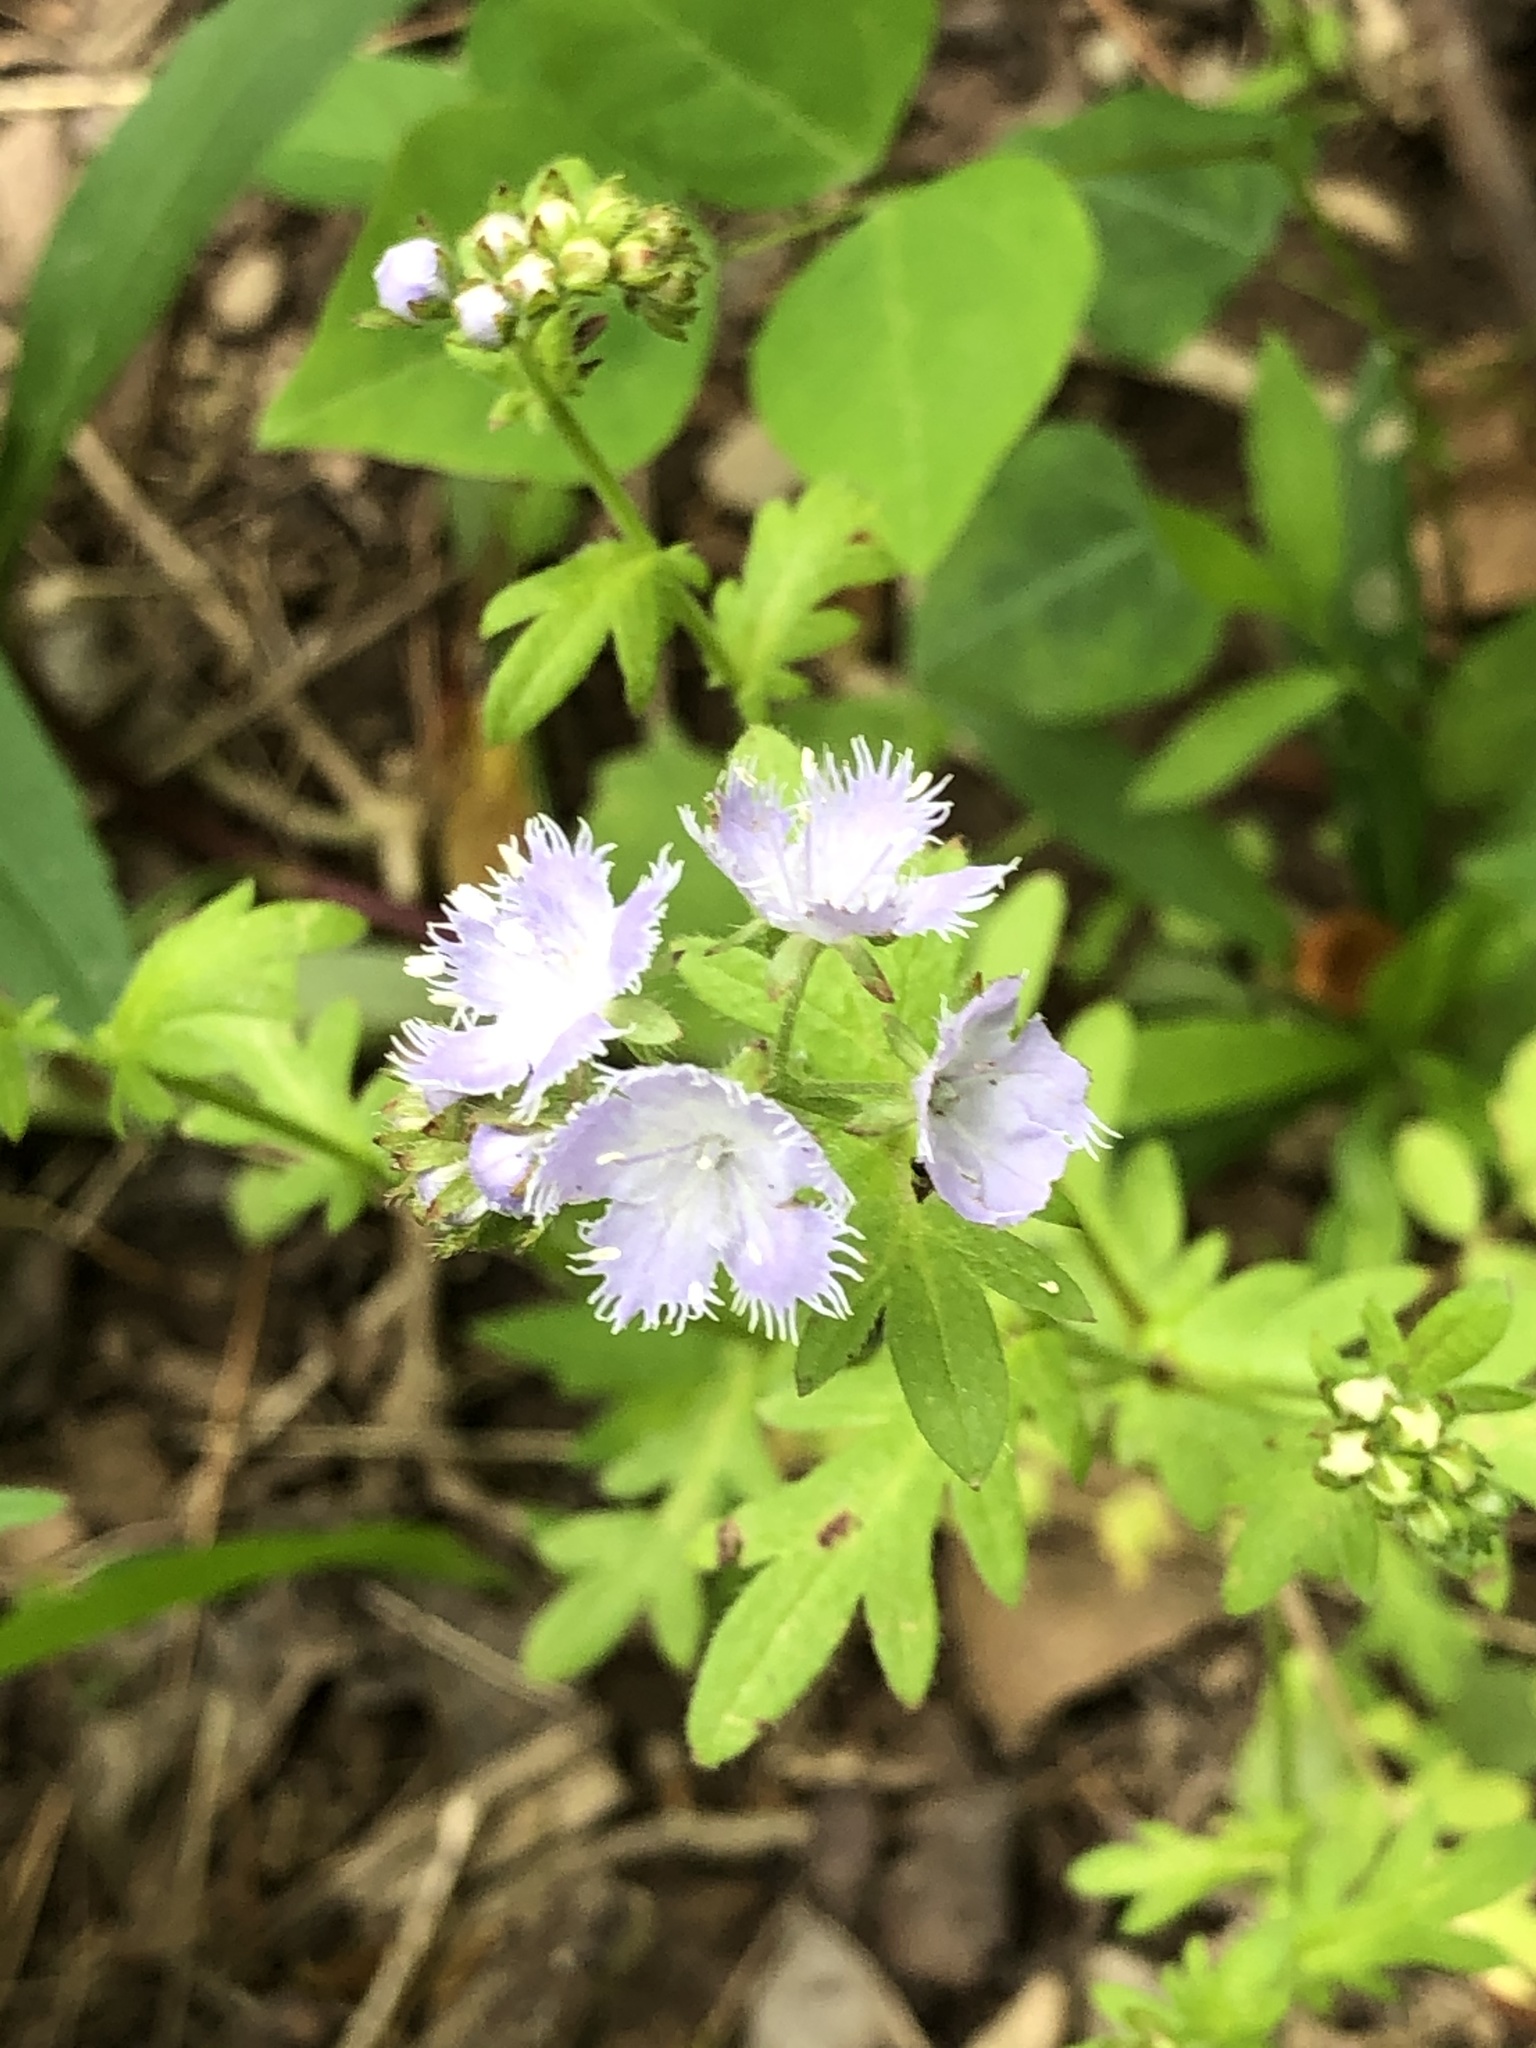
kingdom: Plantae
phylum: Tracheophyta
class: Magnoliopsida
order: Boraginales
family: Hydrophyllaceae
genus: Phacelia
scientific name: Phacelia purshii
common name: Miami-mist
